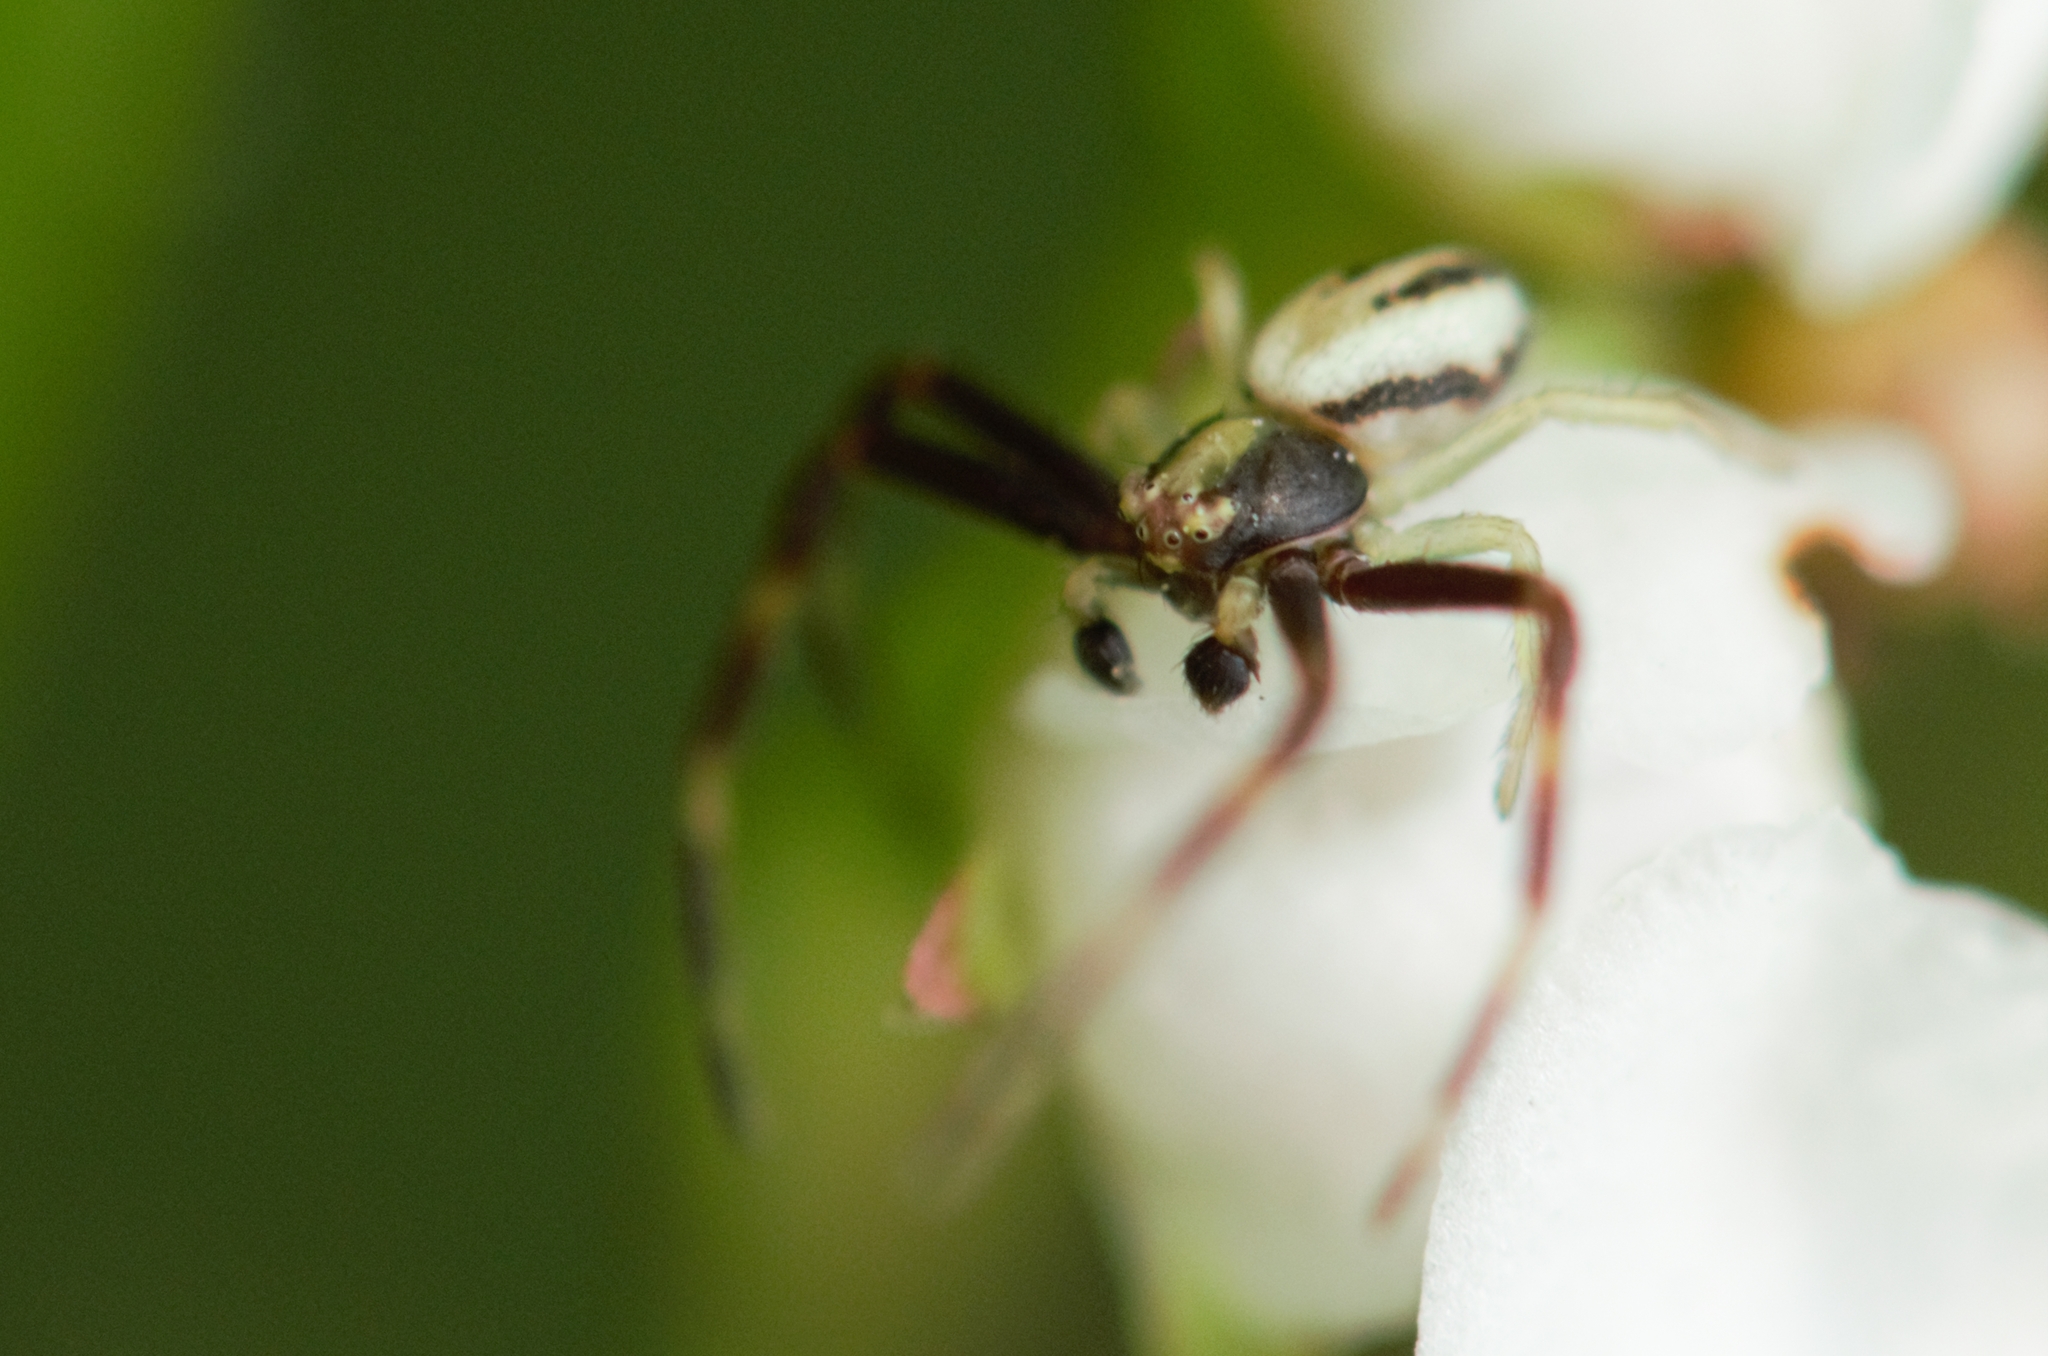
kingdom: Animalia
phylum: Arthropoda
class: Arachnida
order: Araneae
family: Thomisidae
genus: Misumena
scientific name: Misumena vatia
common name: Goldenrod crab spider
